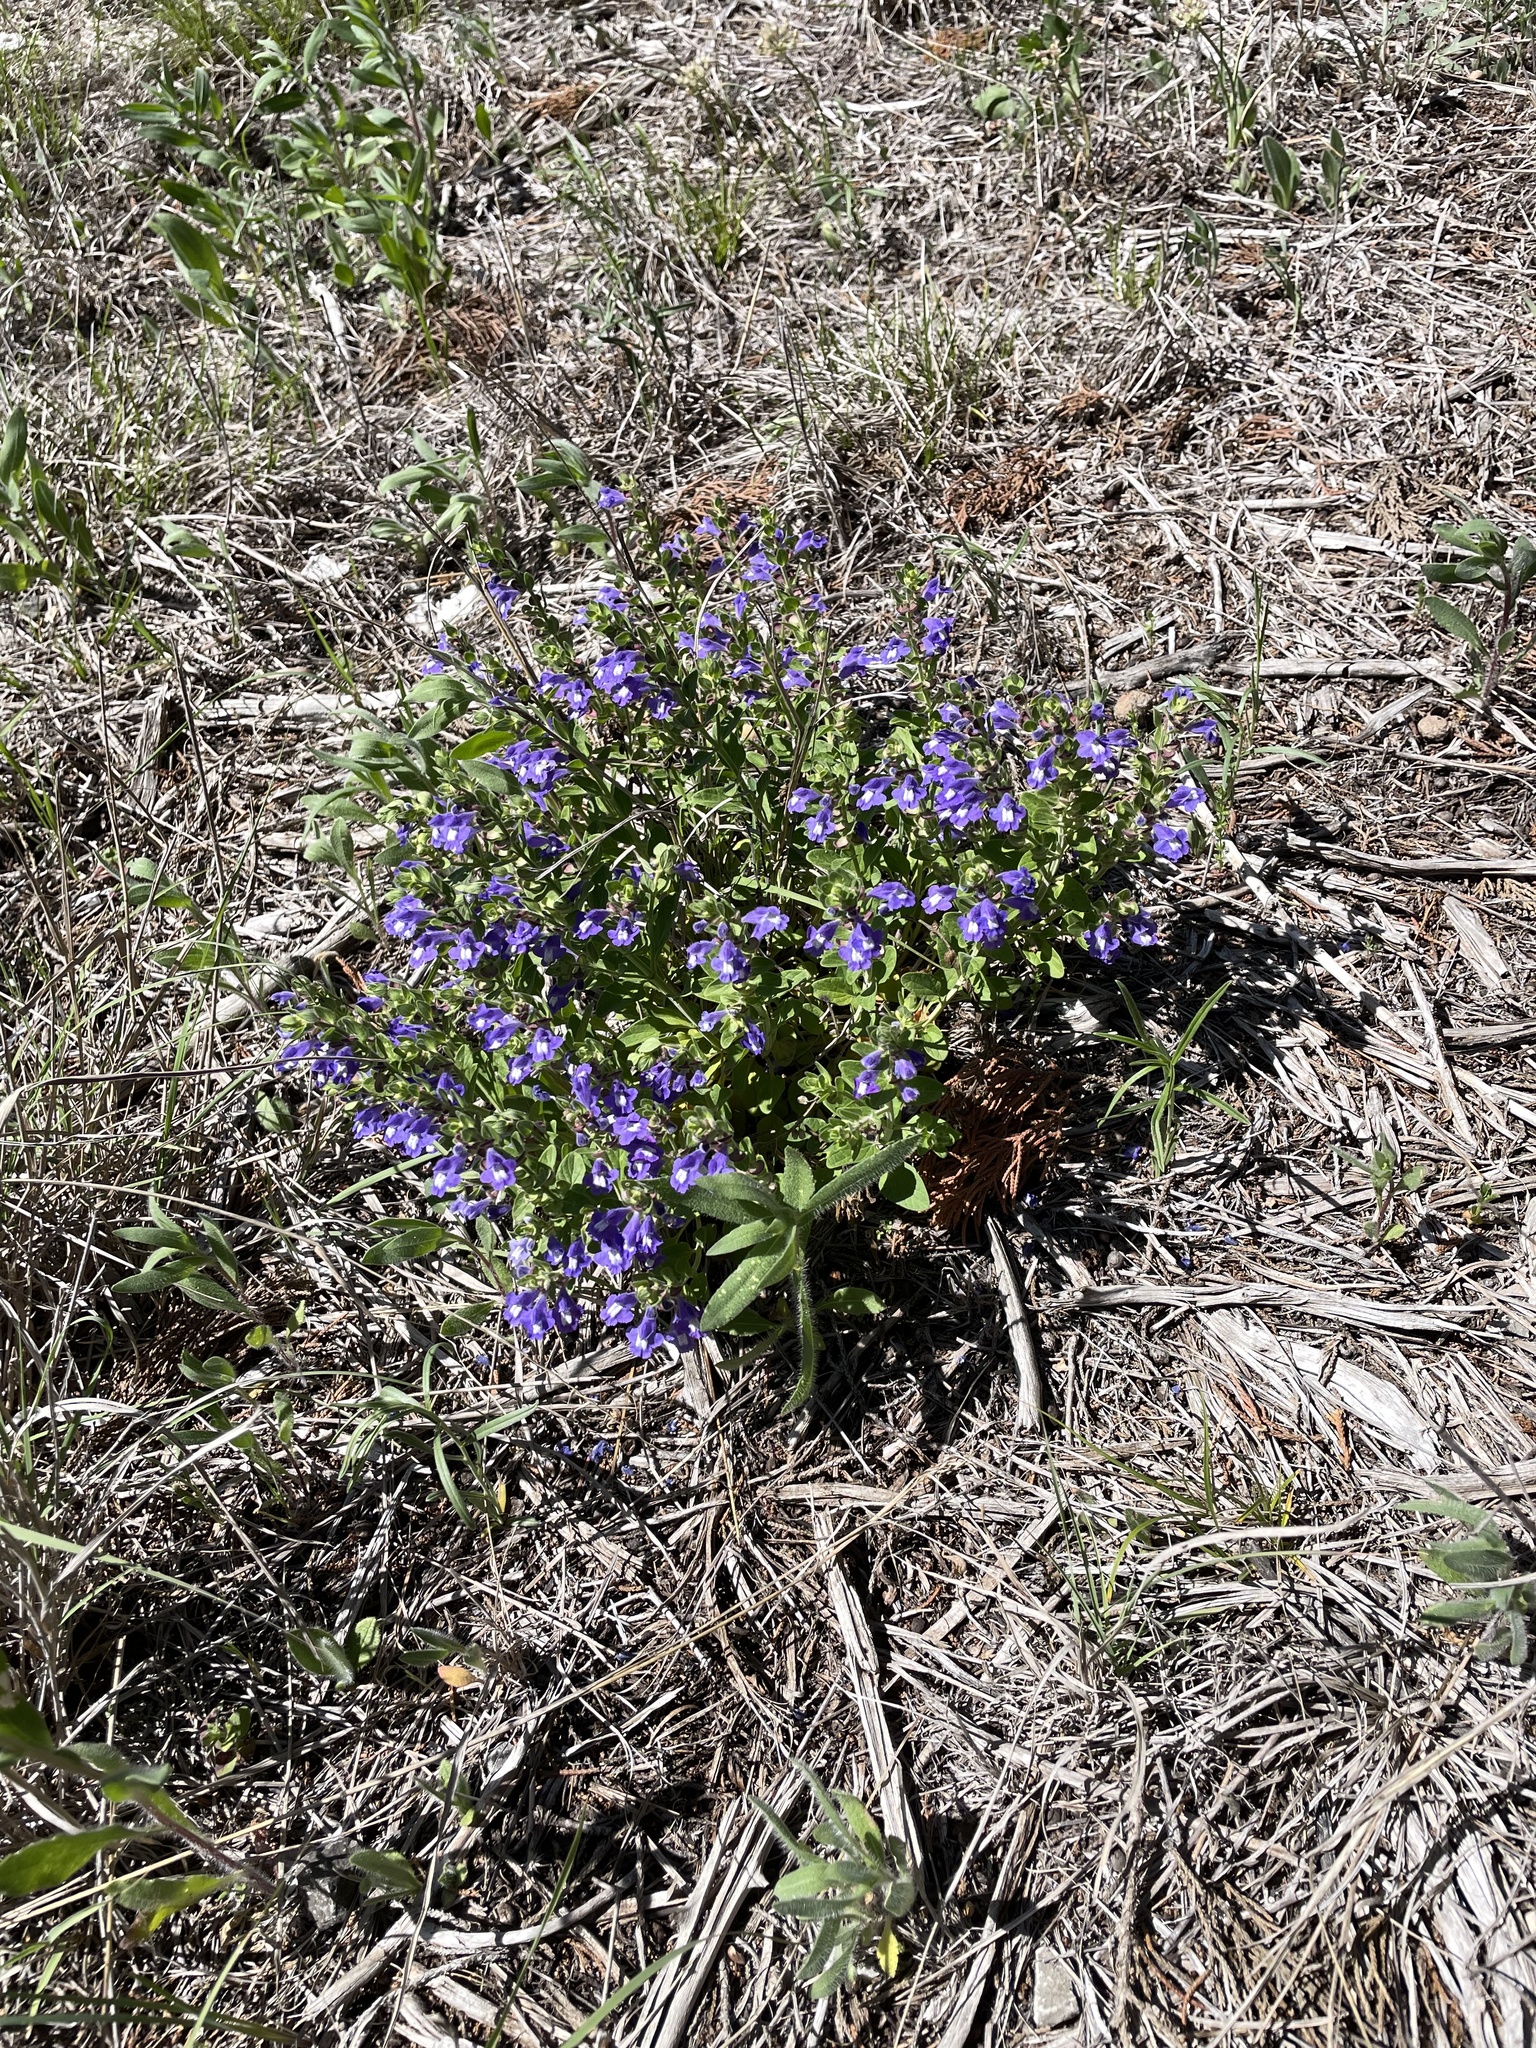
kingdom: Plantae
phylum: Tracheophyta
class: Magnoliopsida
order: Lamiales
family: Lamiaceae
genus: Scutellaria
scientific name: Scutellaria drummondii
